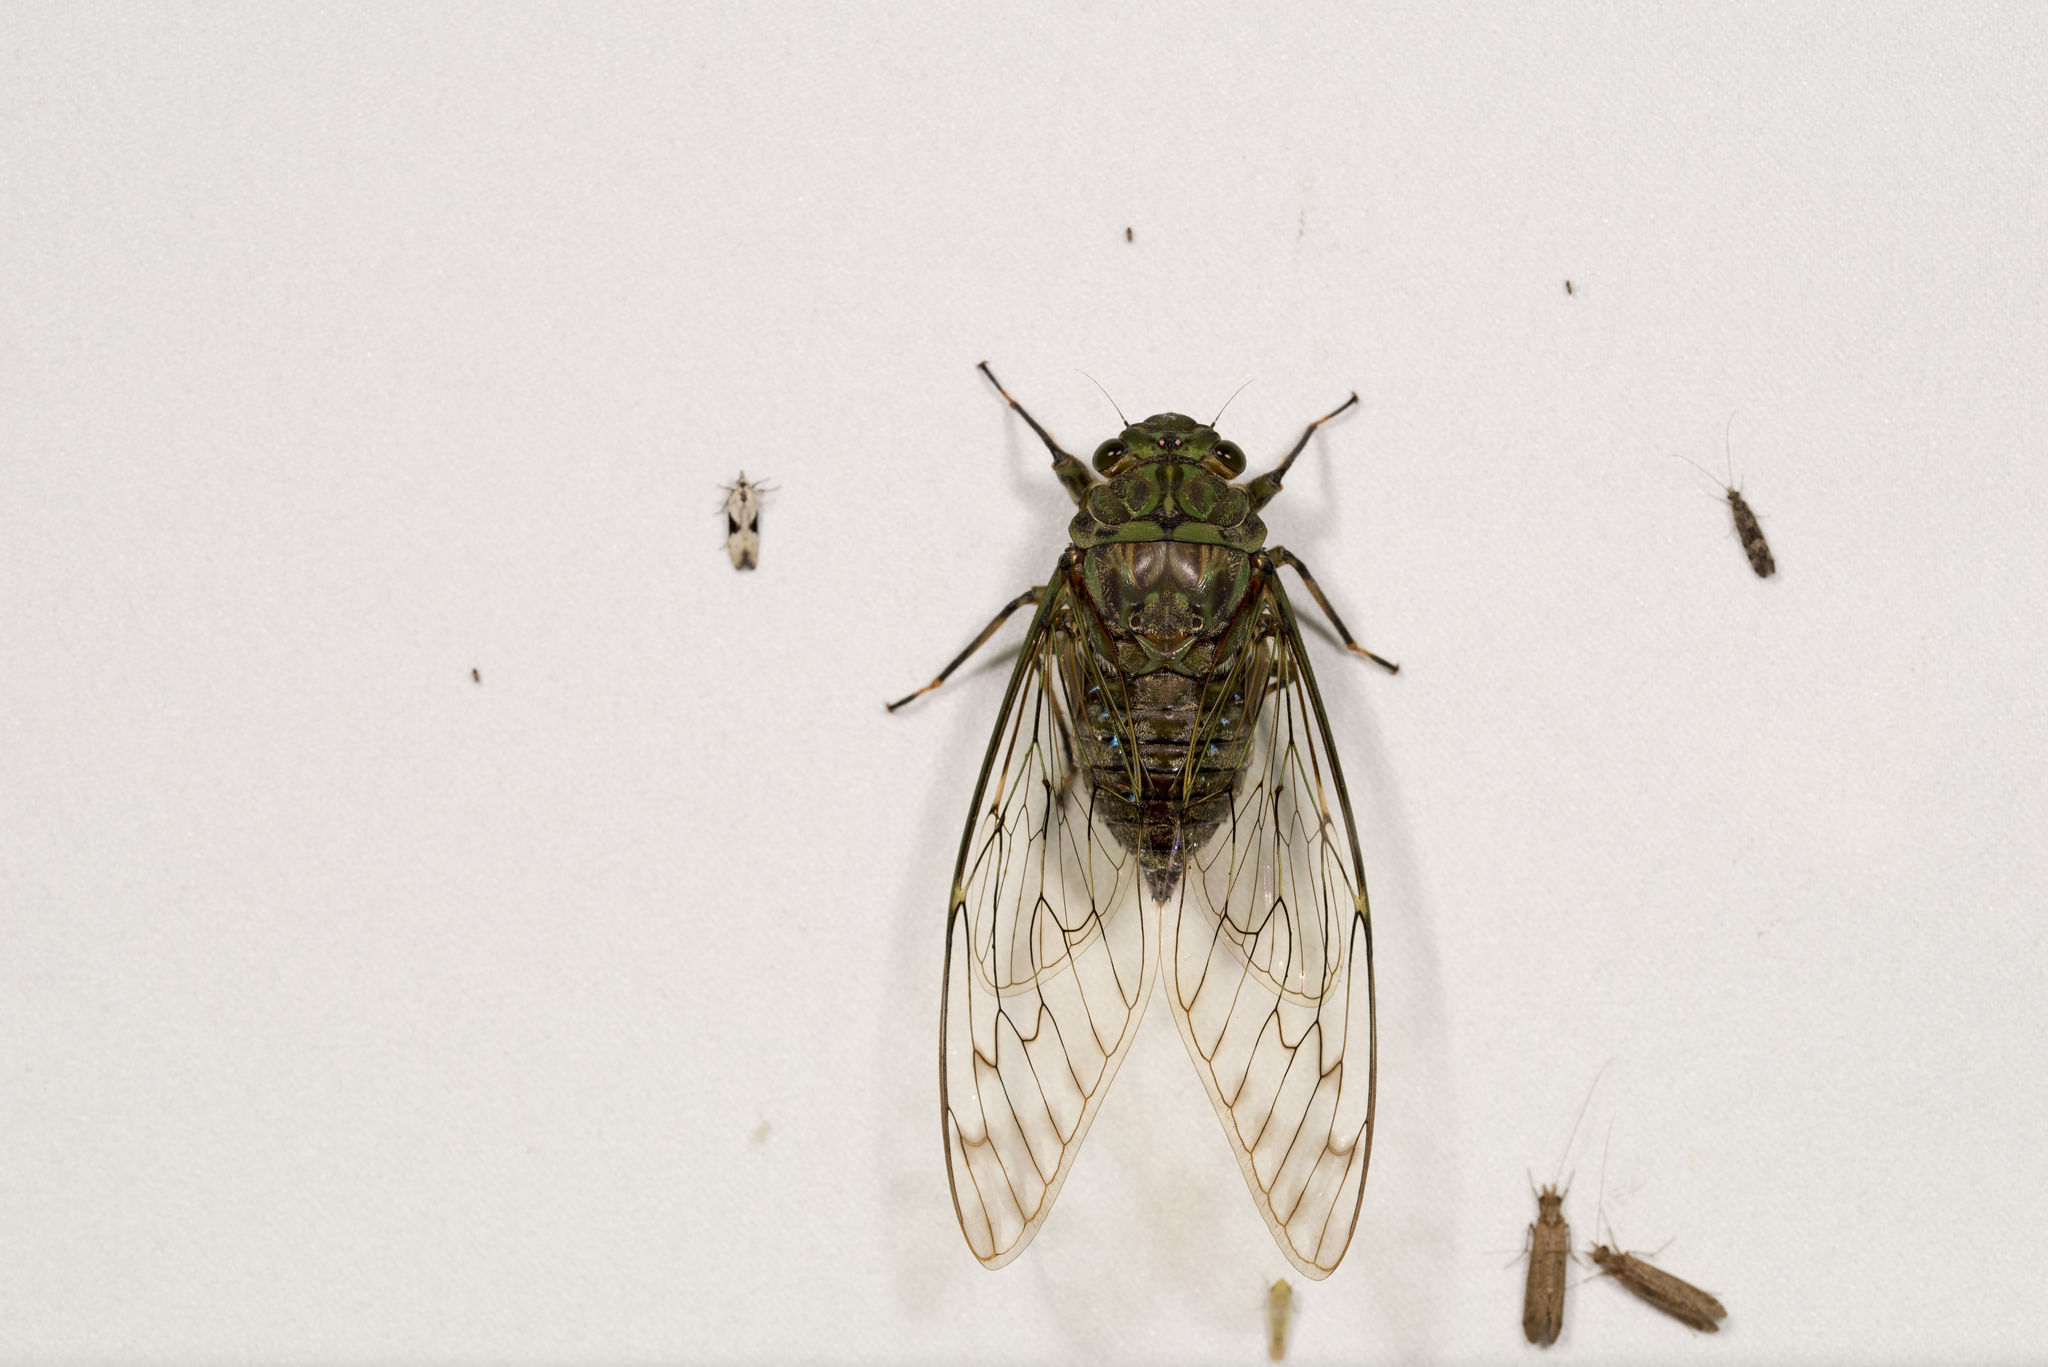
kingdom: Animalia
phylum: Arthropoda
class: Insecta
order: Hemiptera
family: Cicadidae
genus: Pomponia
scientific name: Pomponia yayeyamana
